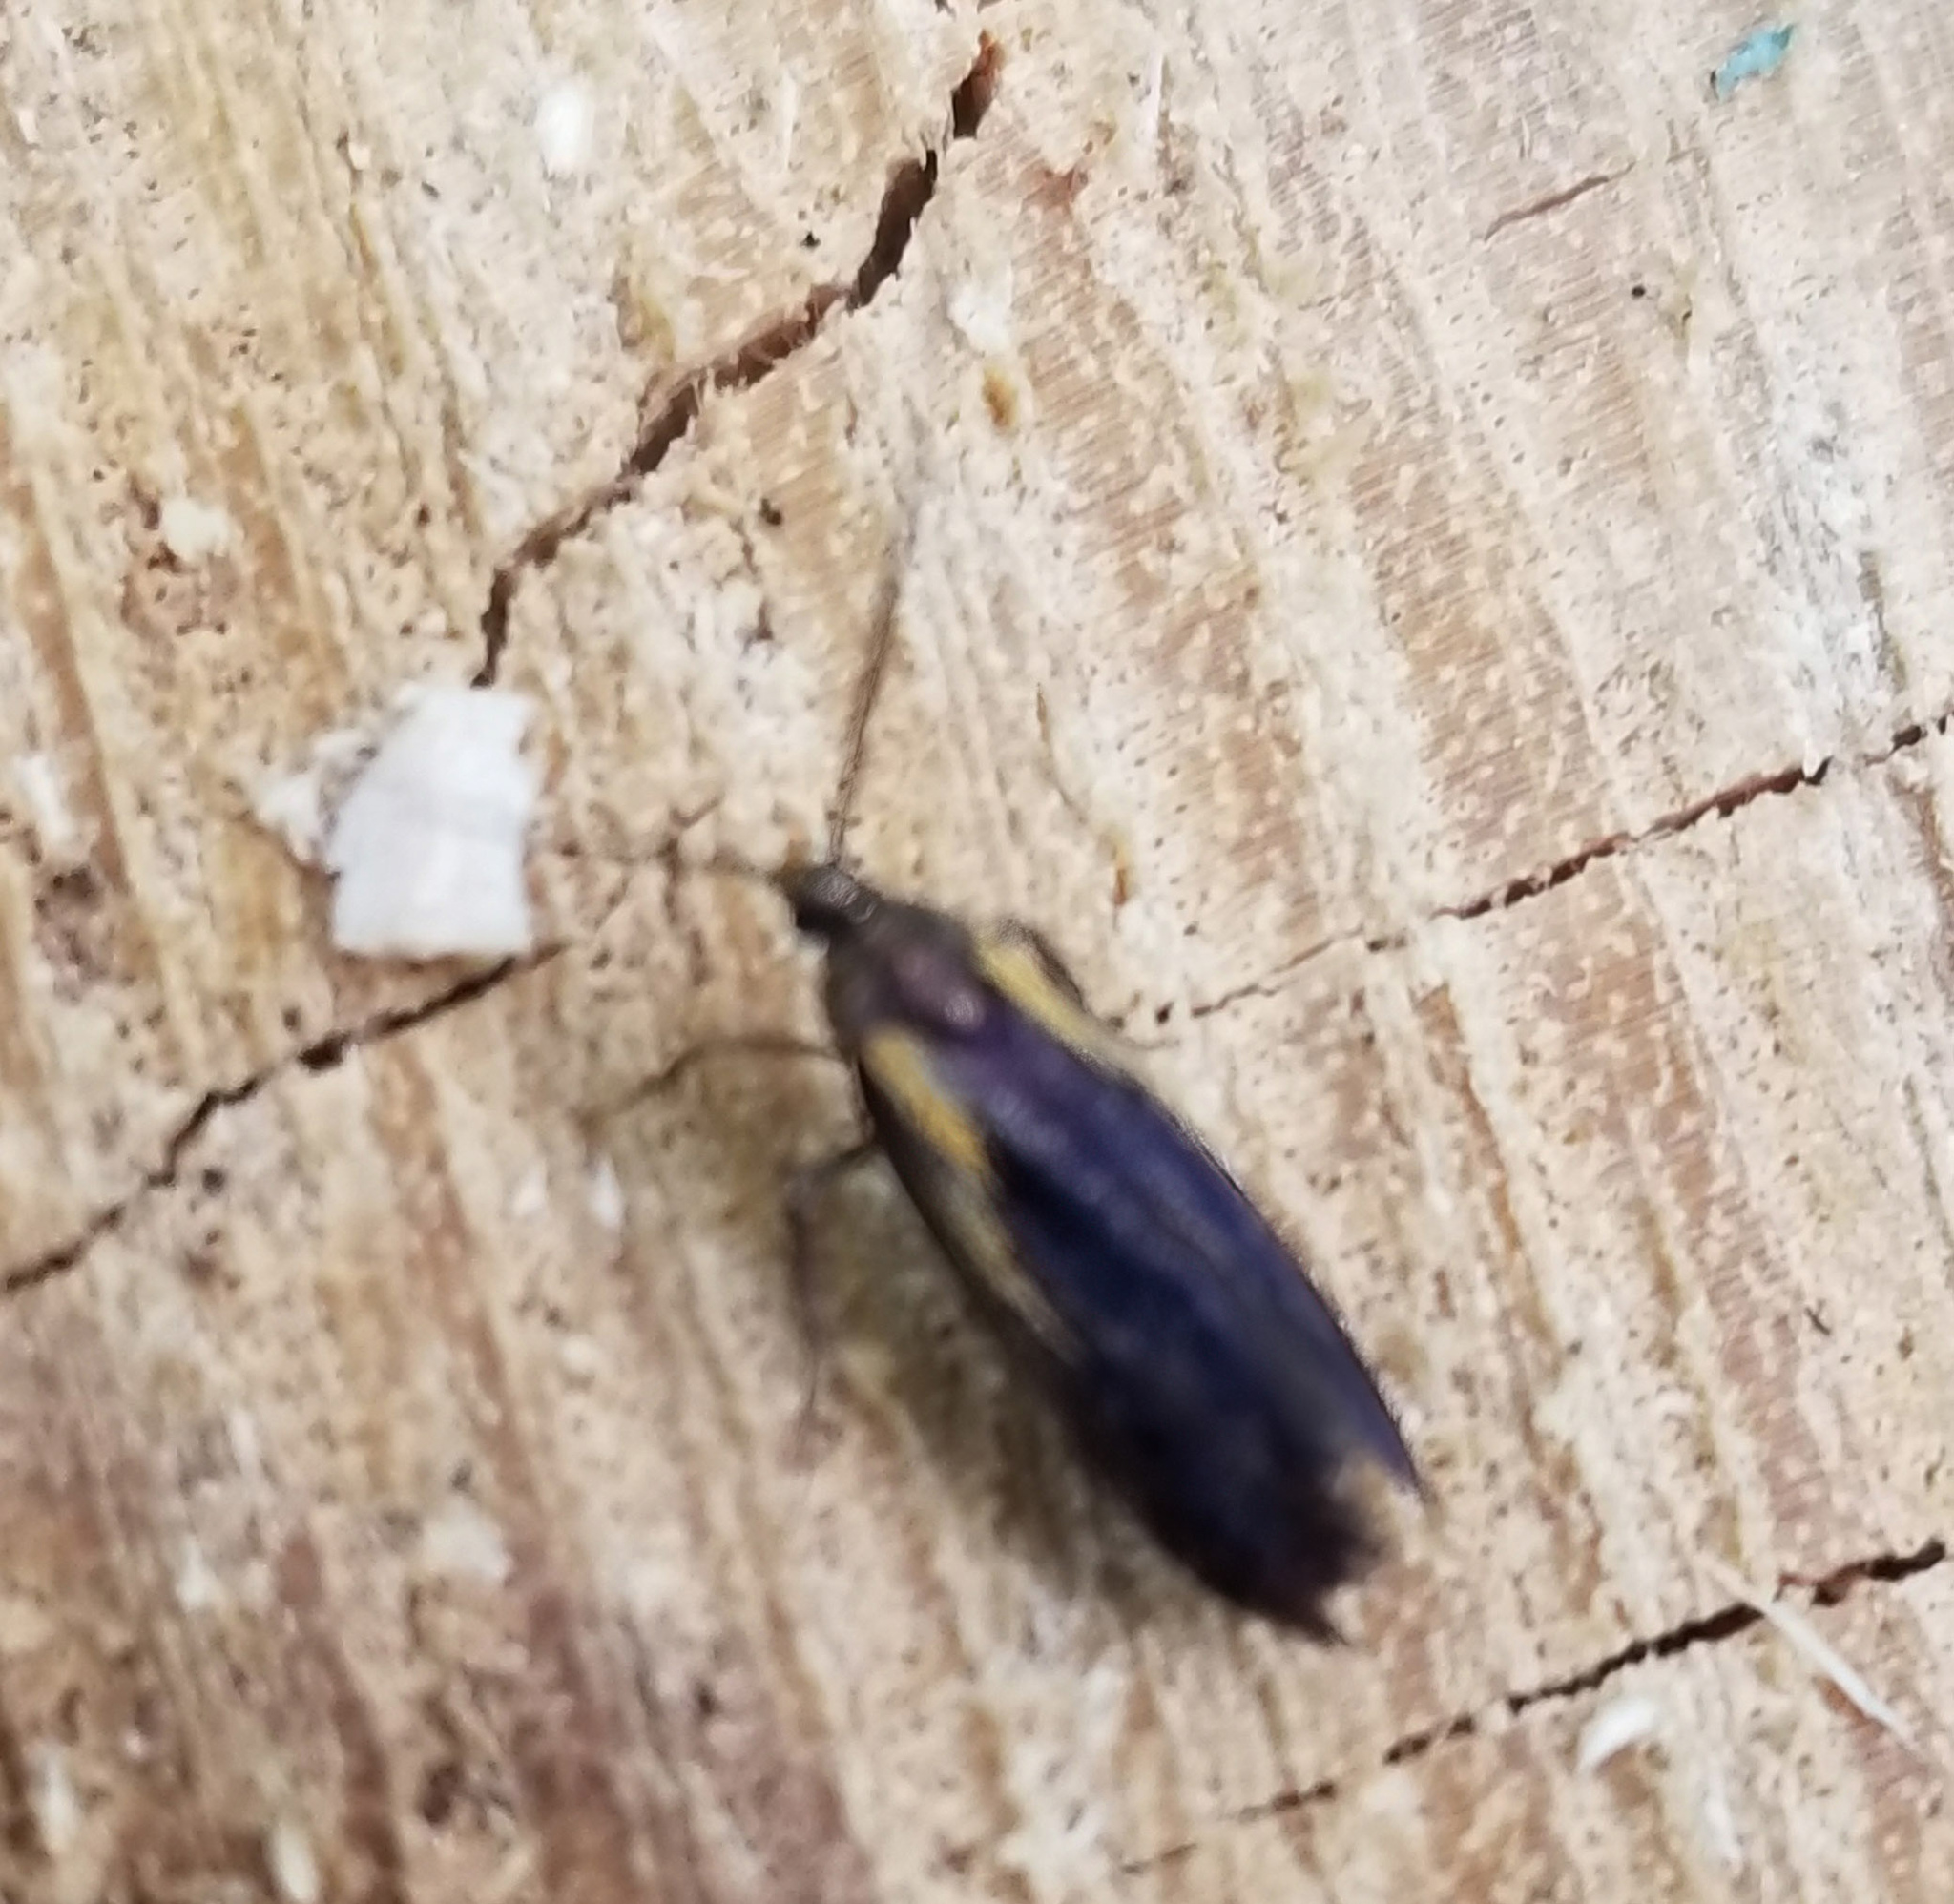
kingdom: Animalia
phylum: Arthropoda
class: Insecta
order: Lepidoptera
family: Oecophoridae
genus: Mathildana
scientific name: Mathildana newmanella
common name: Newman's mathildana moth
